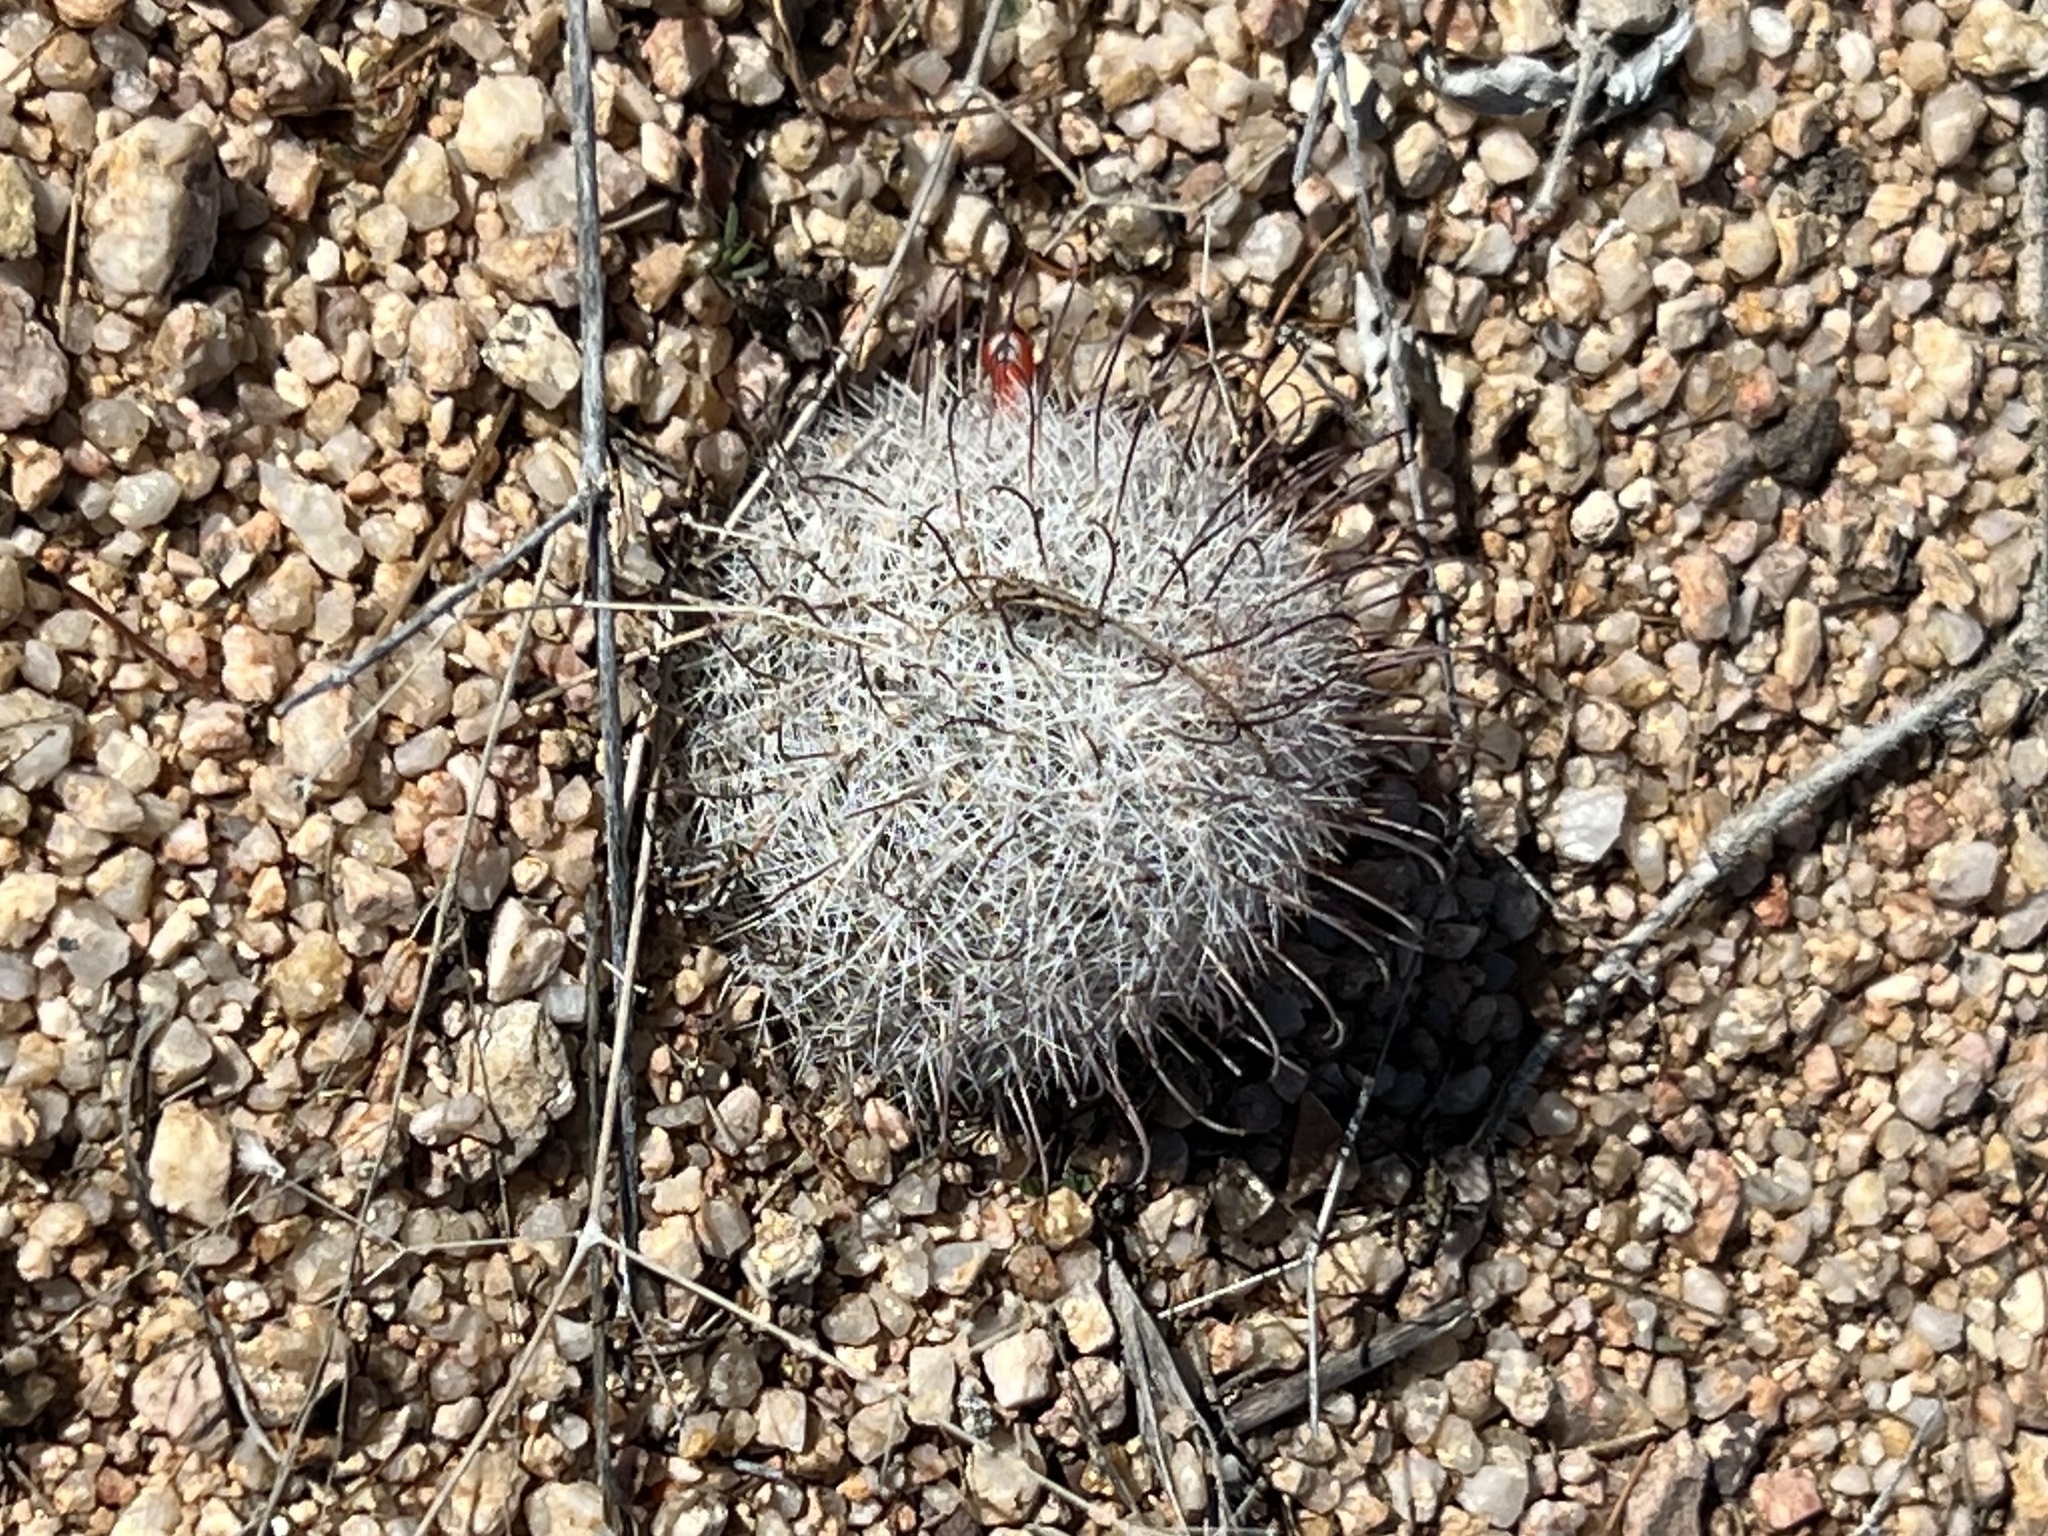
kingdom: Plantae
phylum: Tracheophyta
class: Magnoliopsida
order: Caryophyllales
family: Cactaceae
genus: Cochemiea
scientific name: Cochemiea grahamii
